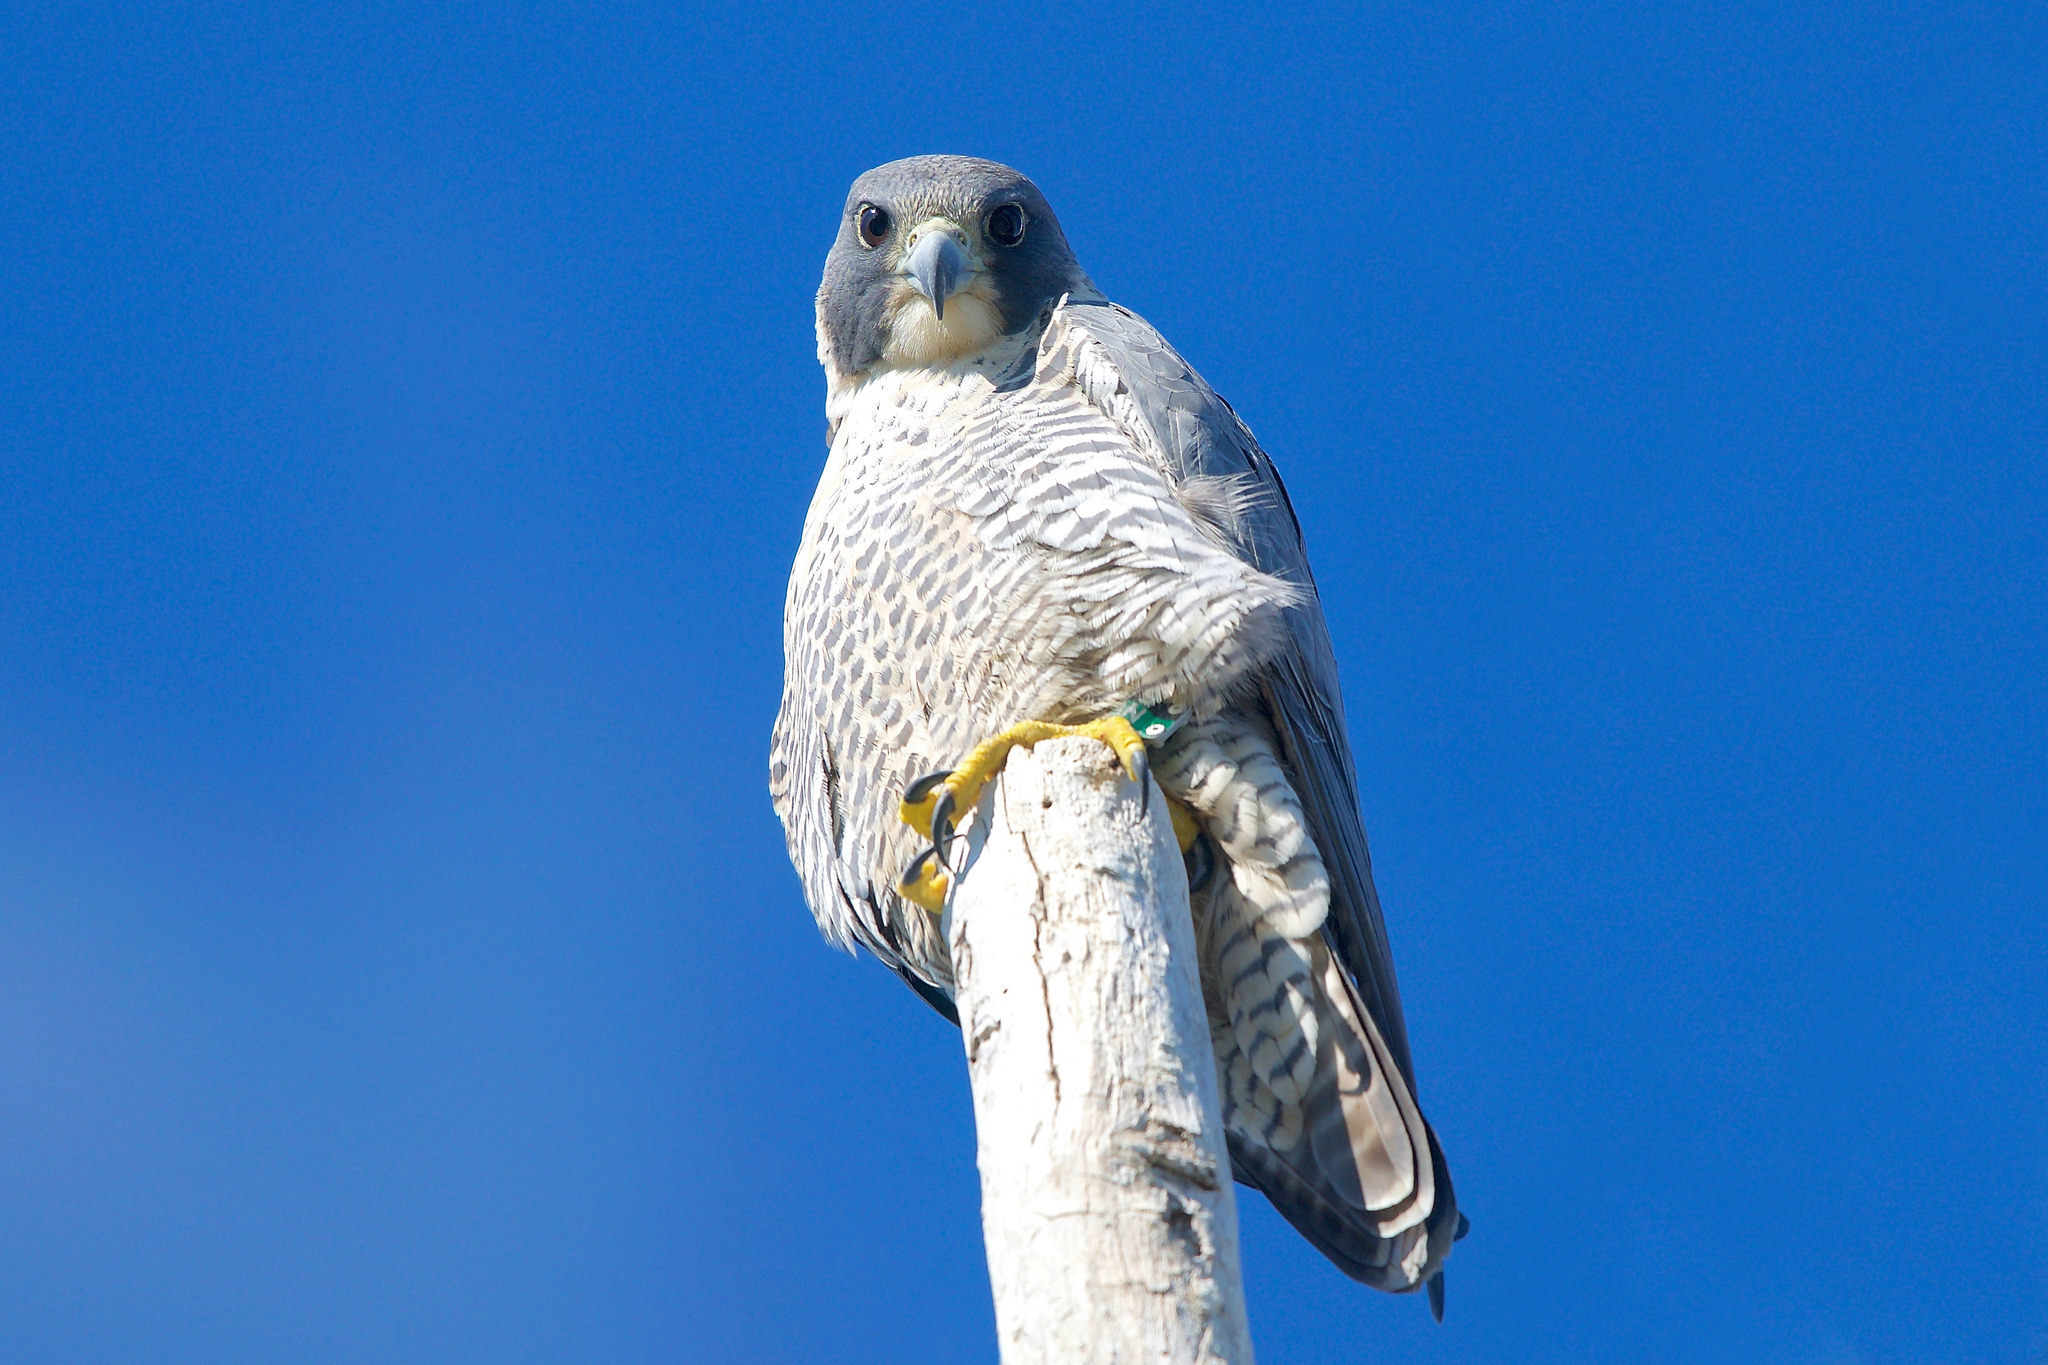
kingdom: Animalia
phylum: Chordata
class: Aves
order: Falconiformes
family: Falconidae
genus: Falco
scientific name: Falco peregrinus
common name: Peregrine falcon
